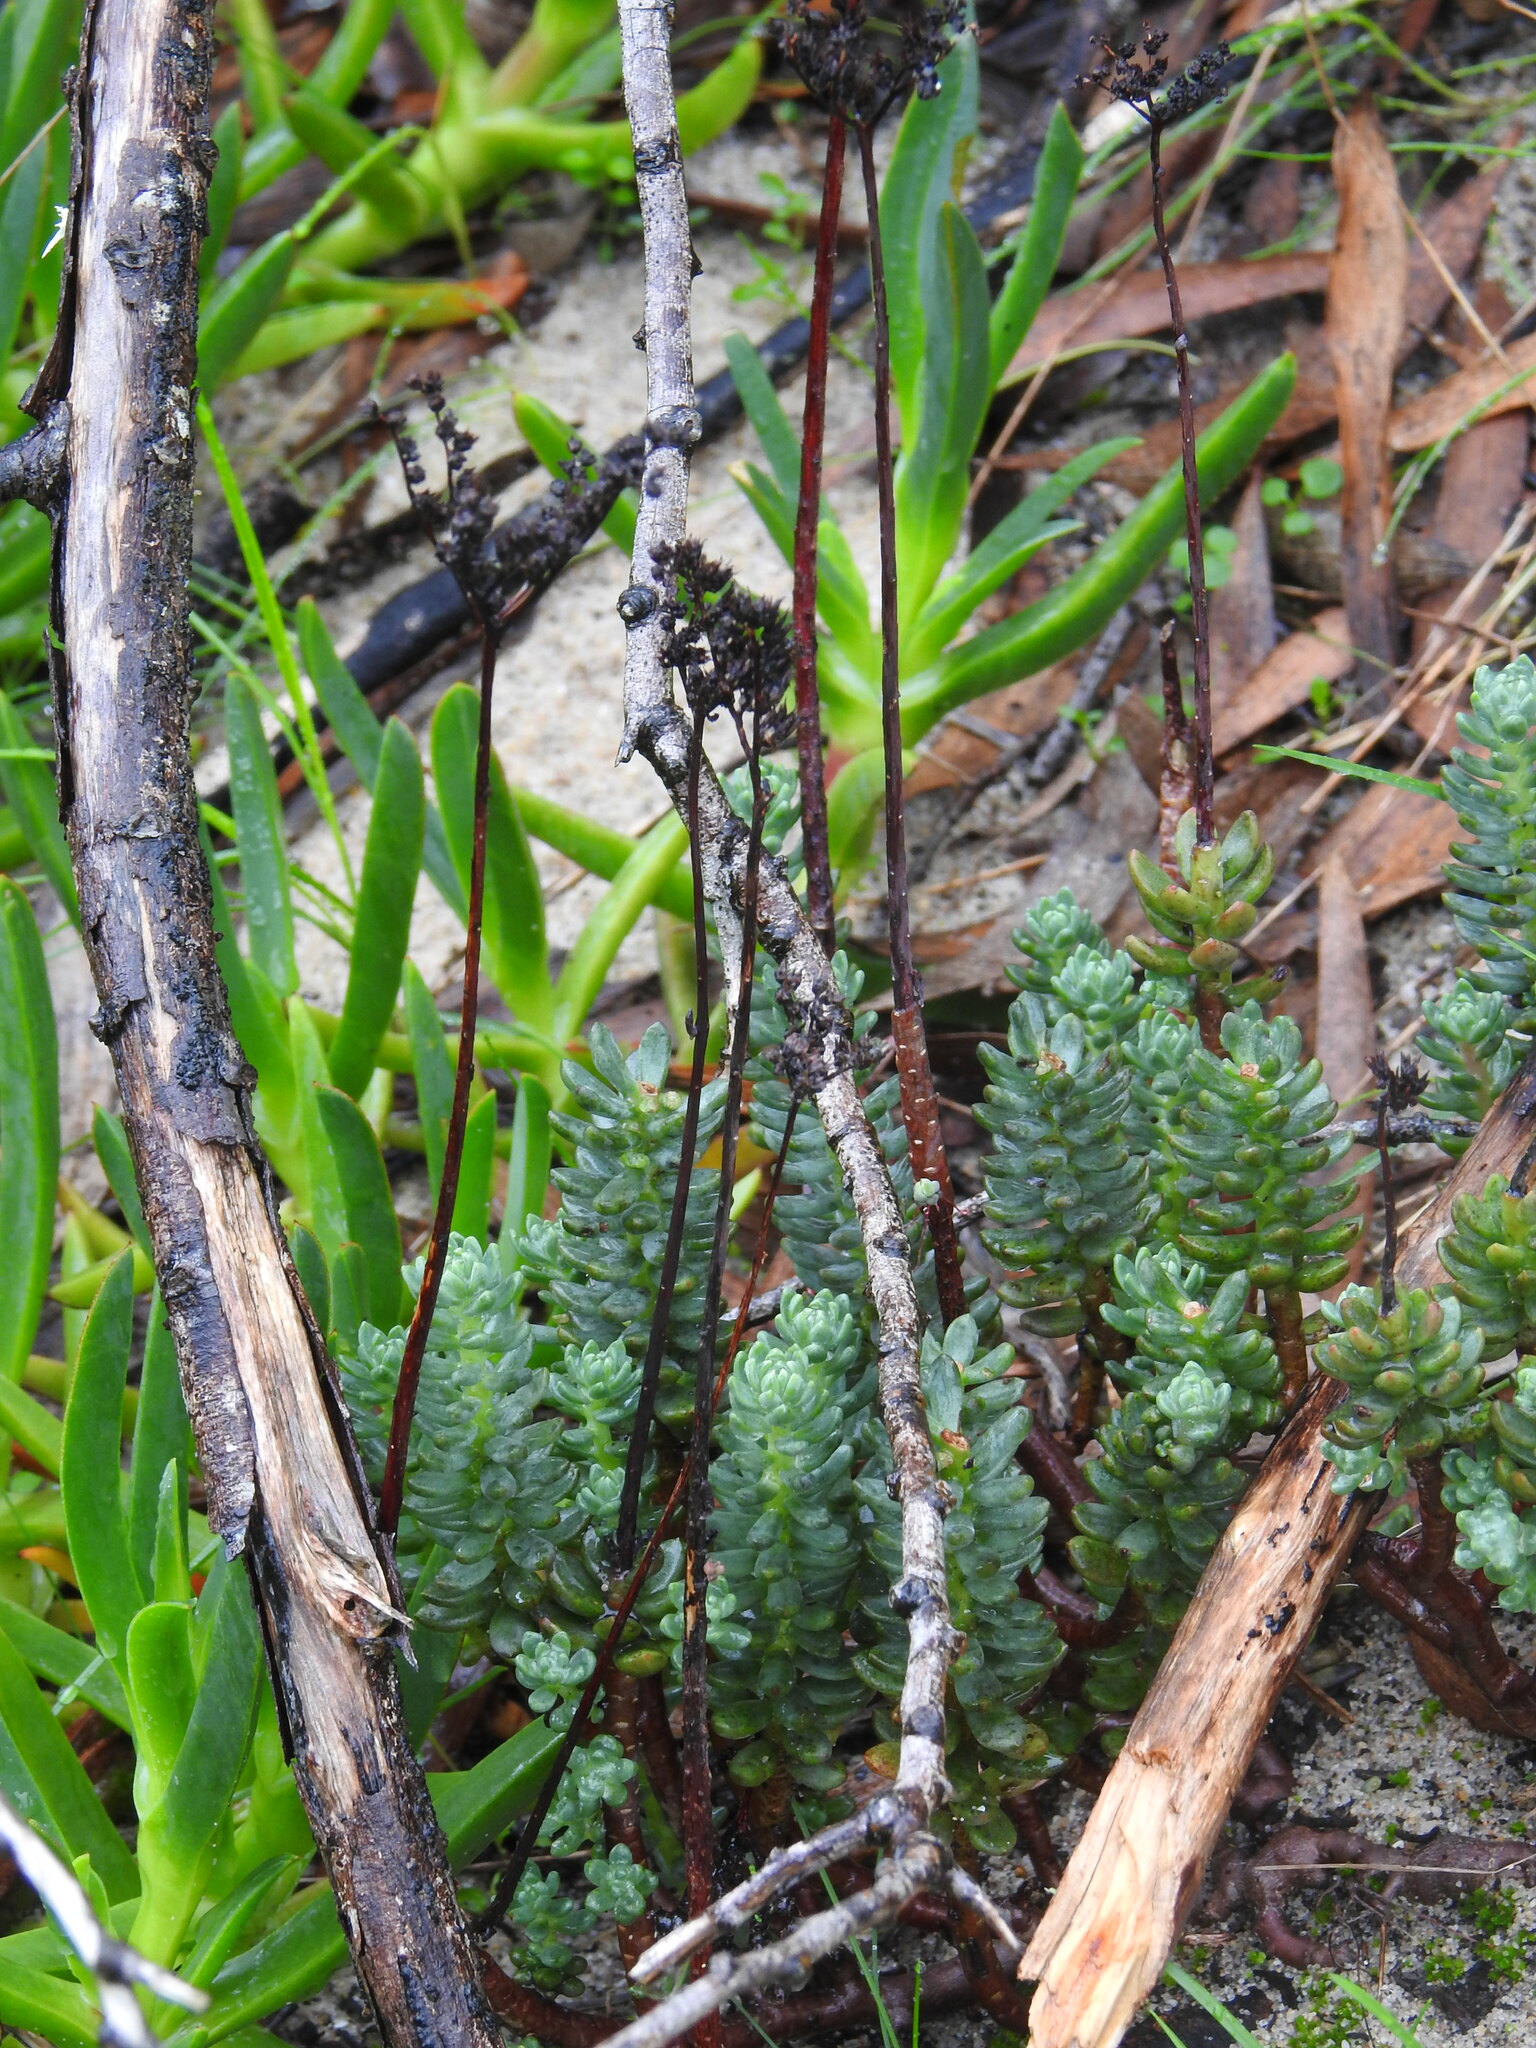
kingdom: Plantae
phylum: Tracheophyta
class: Magnoliopsida
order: Saxifragales
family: Crassulaceae
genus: Petrosedum
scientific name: Petrosedum sediforme
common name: Pale stonecrop
